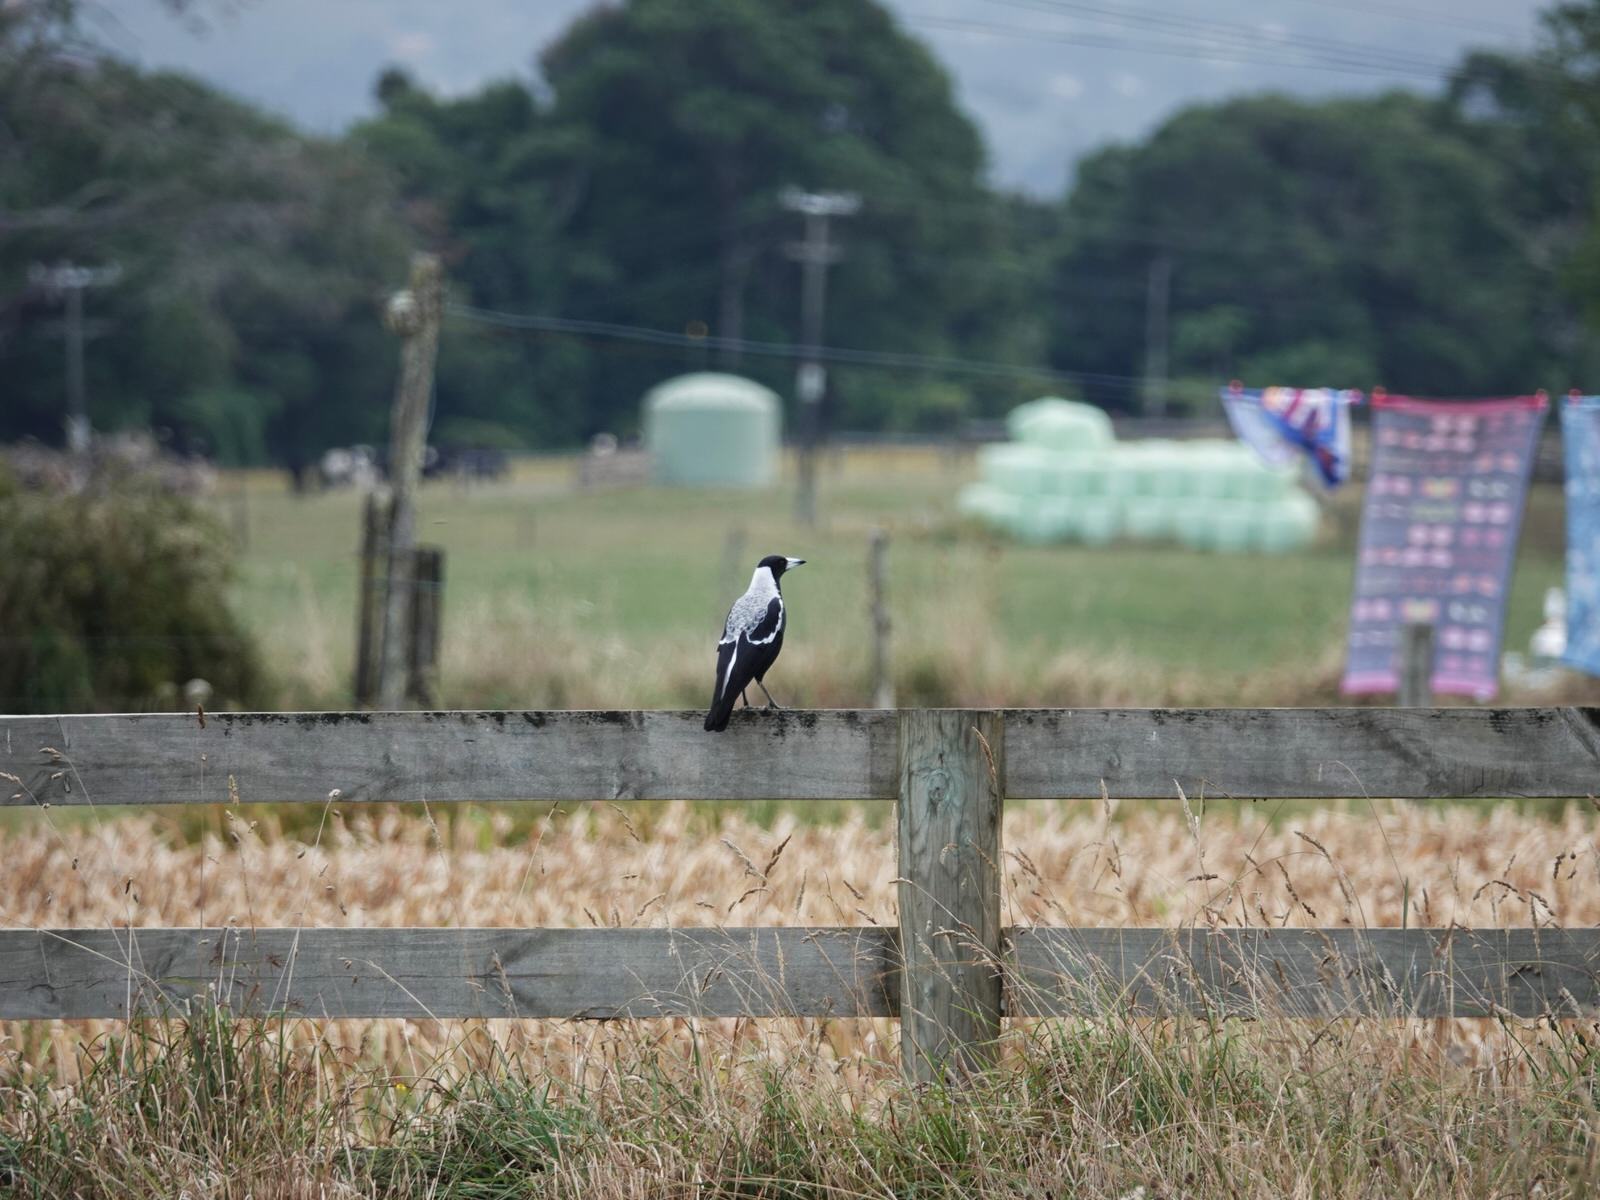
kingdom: Animalia
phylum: Chordata
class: Aves
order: Passeriformes
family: Cracticidae
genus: Gymnorhina
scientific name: Gymnorhina tibicen
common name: Australian magpie
